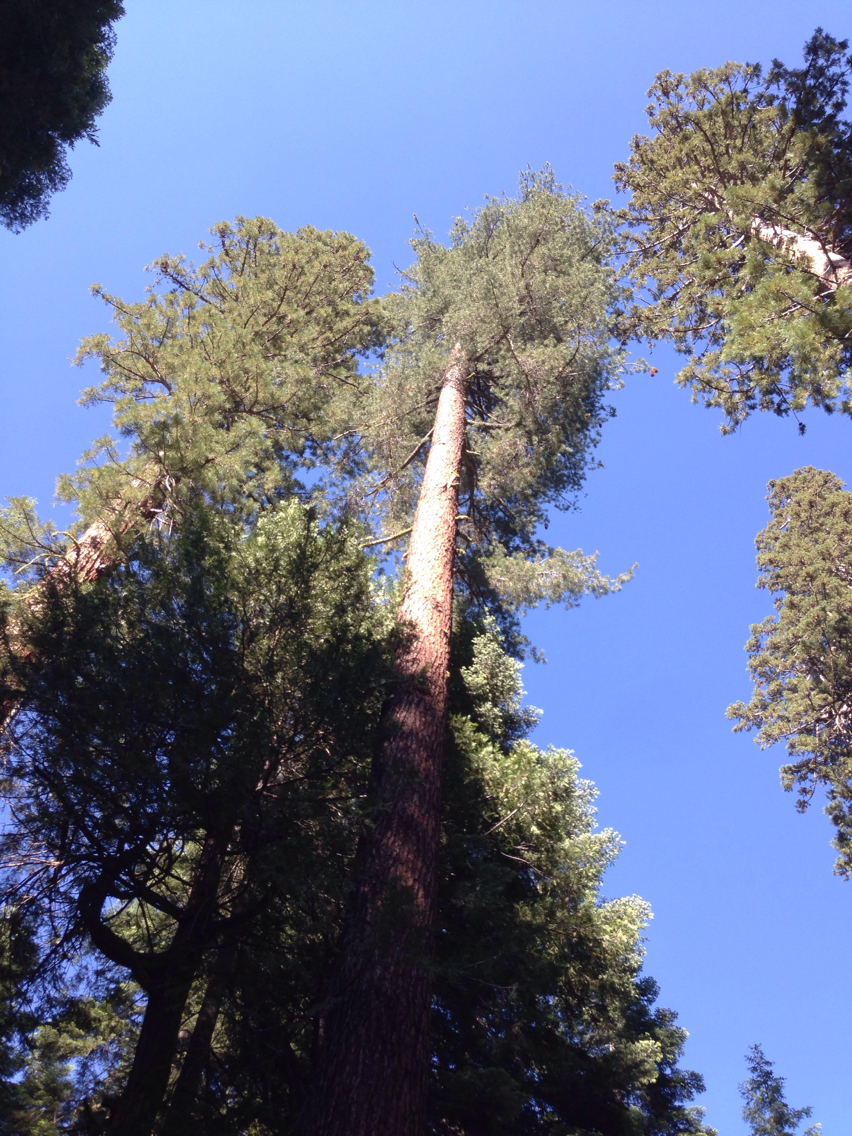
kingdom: Plantae
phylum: Tracheophyta
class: Pinopsida
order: Pinales
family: Pinaceae
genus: Pinus
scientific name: Pinus lambertiana
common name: Sugar pine
